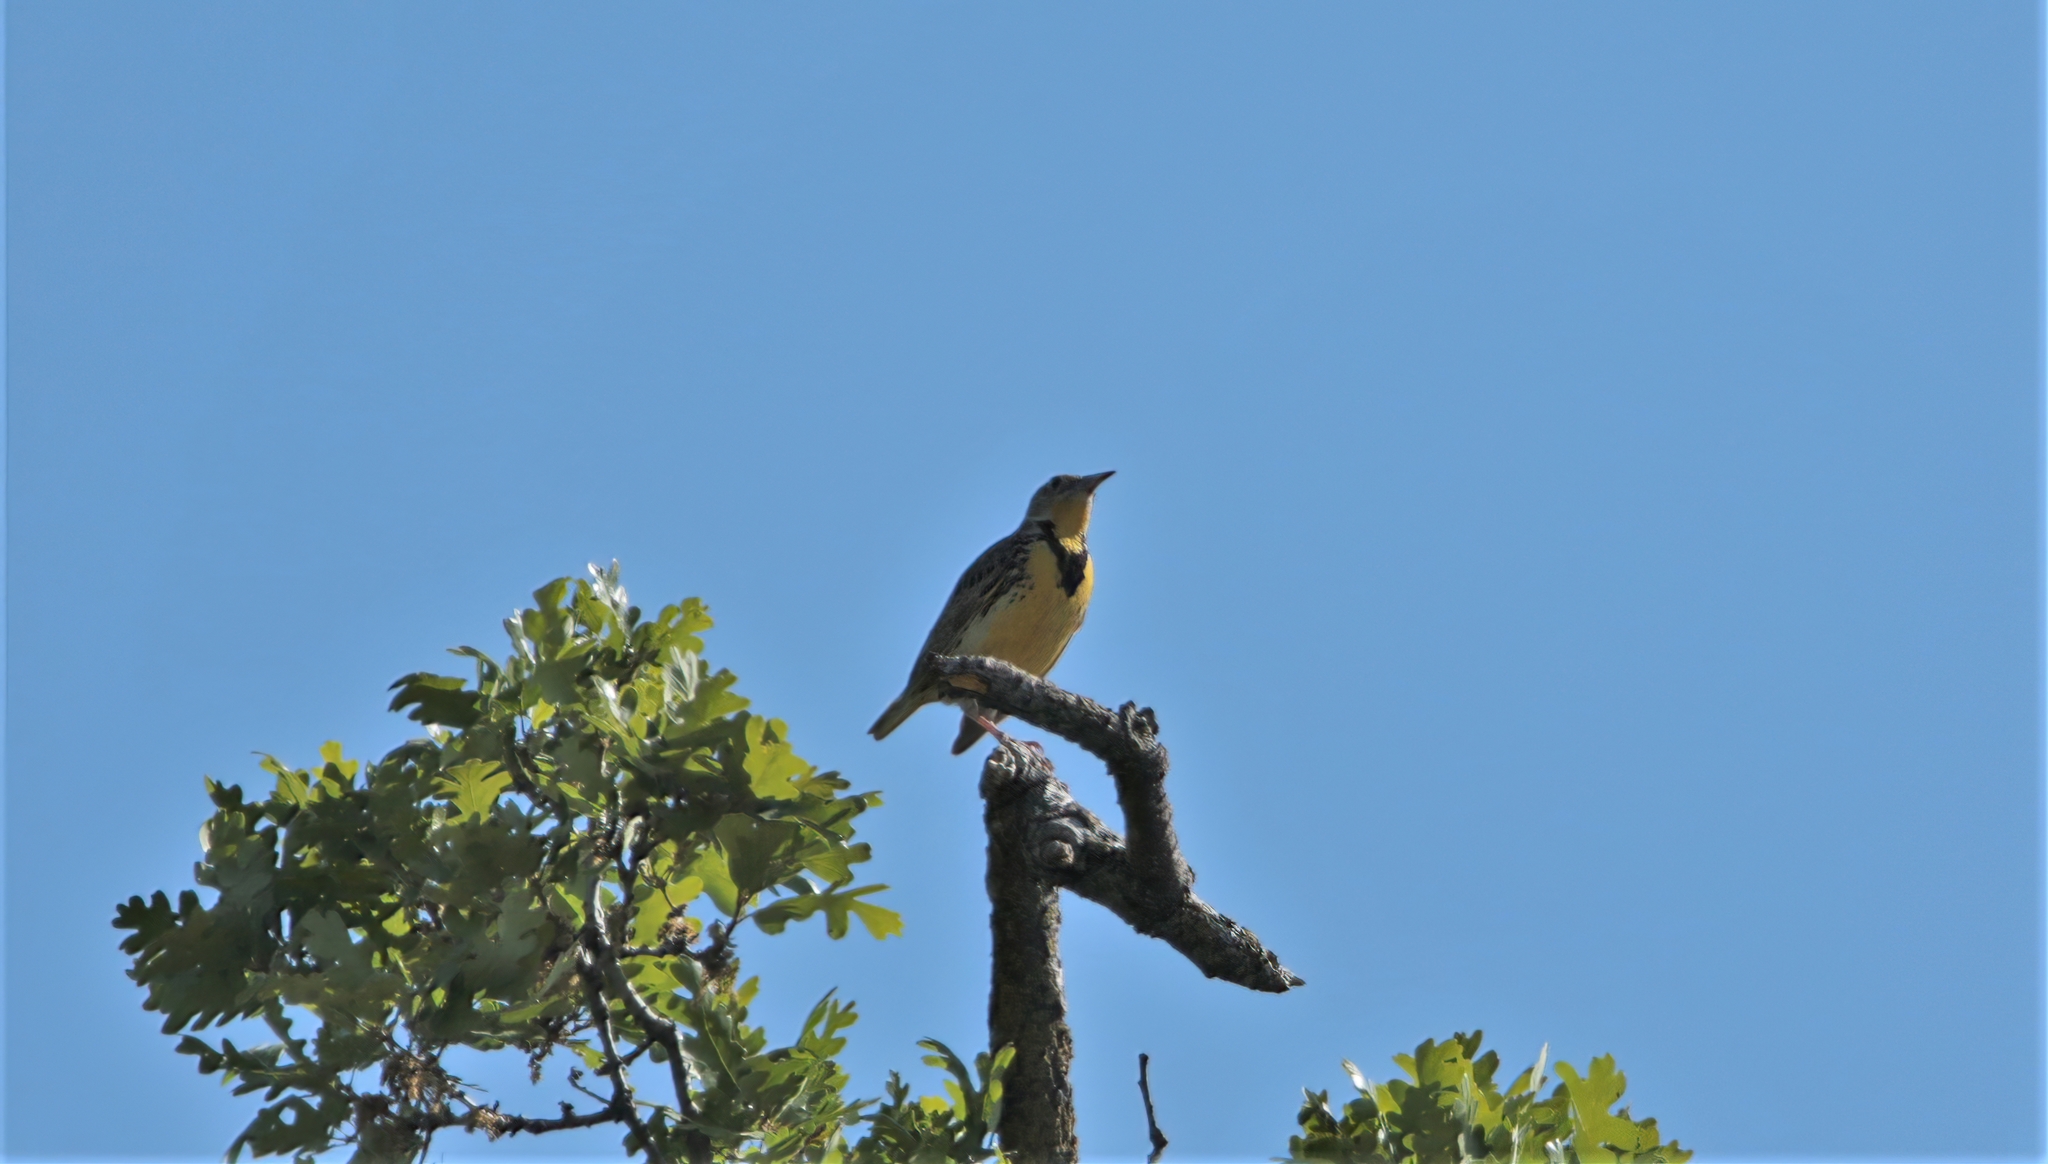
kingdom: Animalia
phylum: Chordata
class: Aves
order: Passeriformes
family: Icteridae
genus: Sturnella
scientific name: Sturnella neglecta
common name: Western meadowlark
